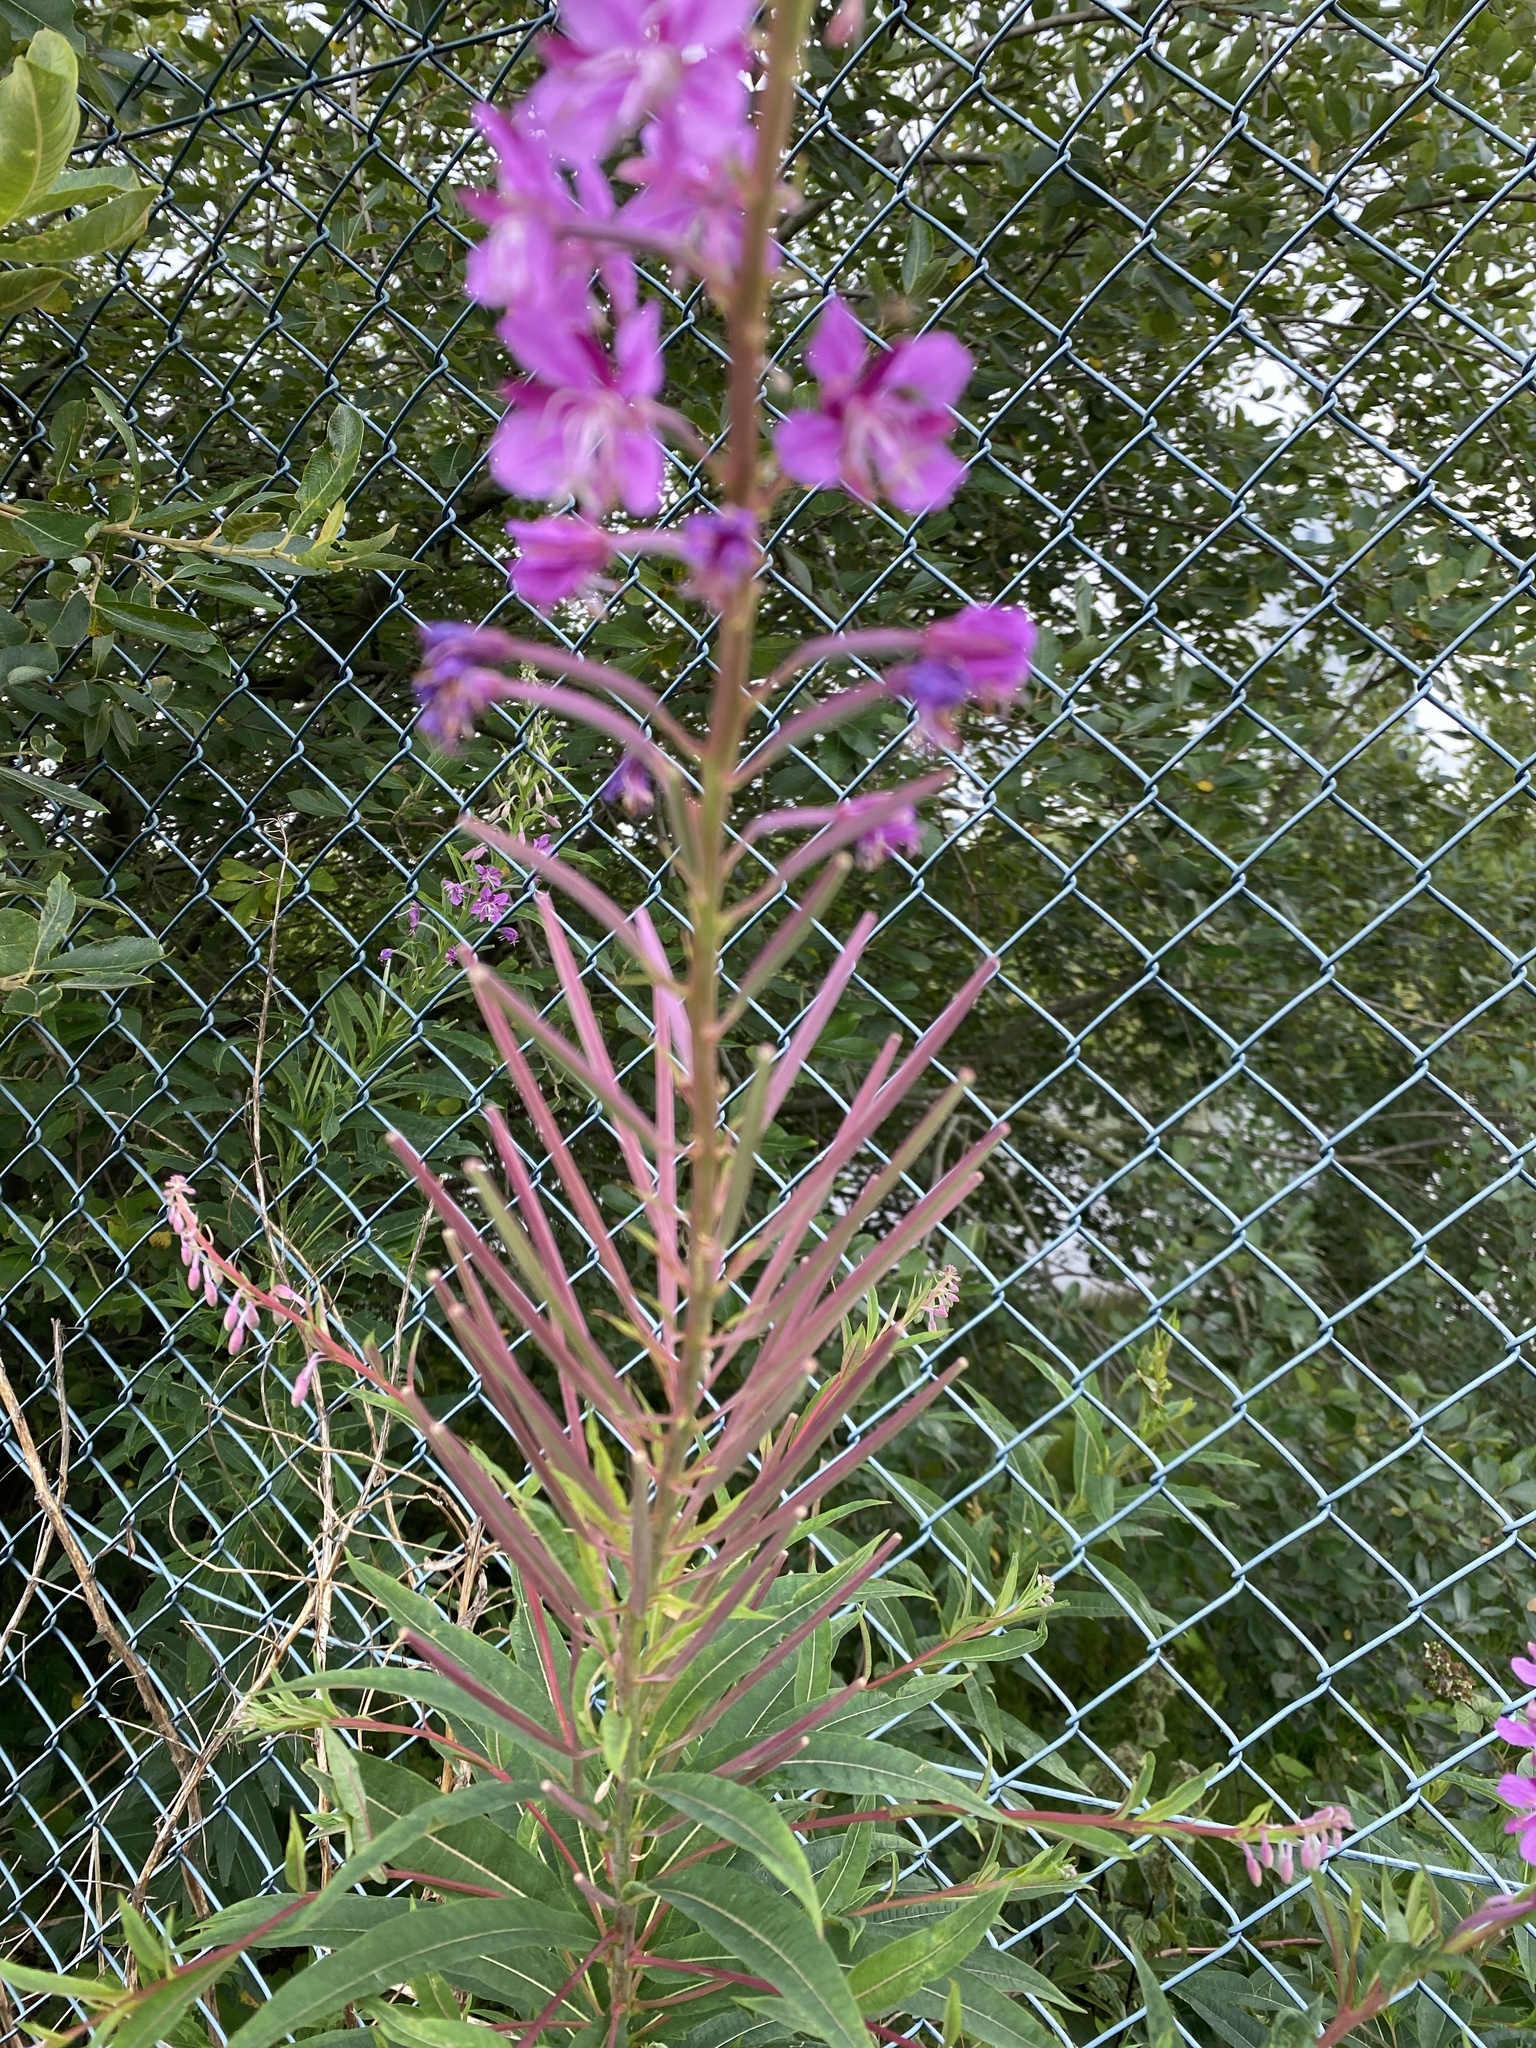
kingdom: Plantae
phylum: Tracheophyta
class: Magnoliopsida
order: Myrtales
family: Onagraceae
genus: Chamaenerion
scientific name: Chamaenerion angustifolium
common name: Fireweed
